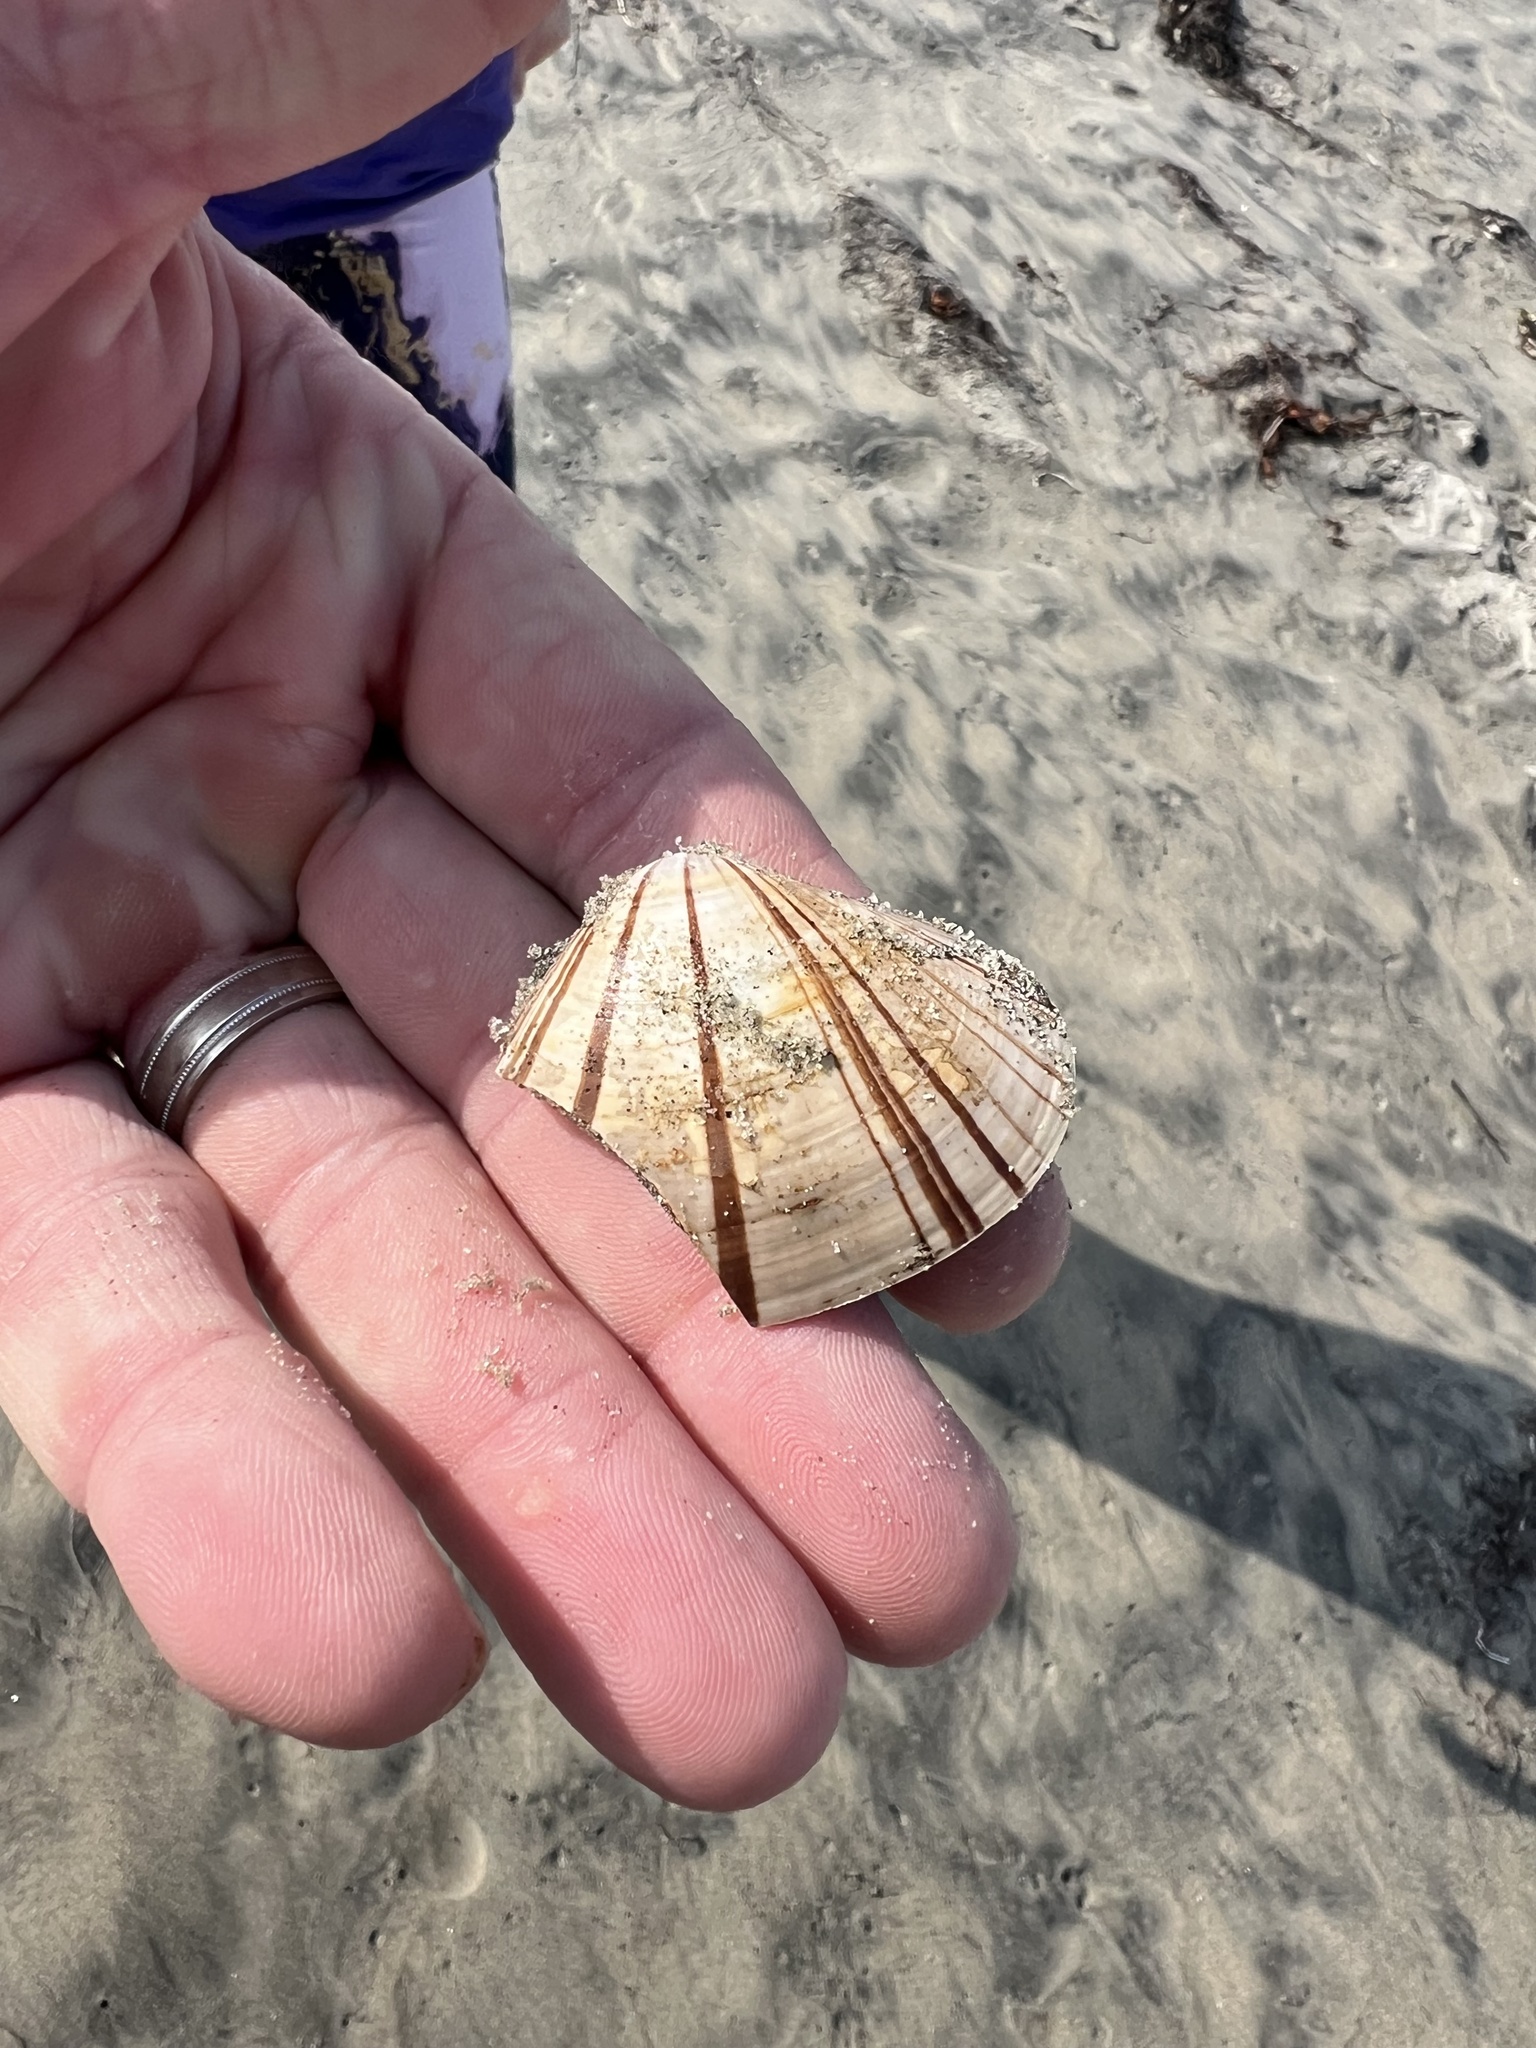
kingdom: Animalia
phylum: Mollusca
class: Bivalvia
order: Venerida
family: Veneridae
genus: Tivela
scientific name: Tivela stultorum
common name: Pismo clam
